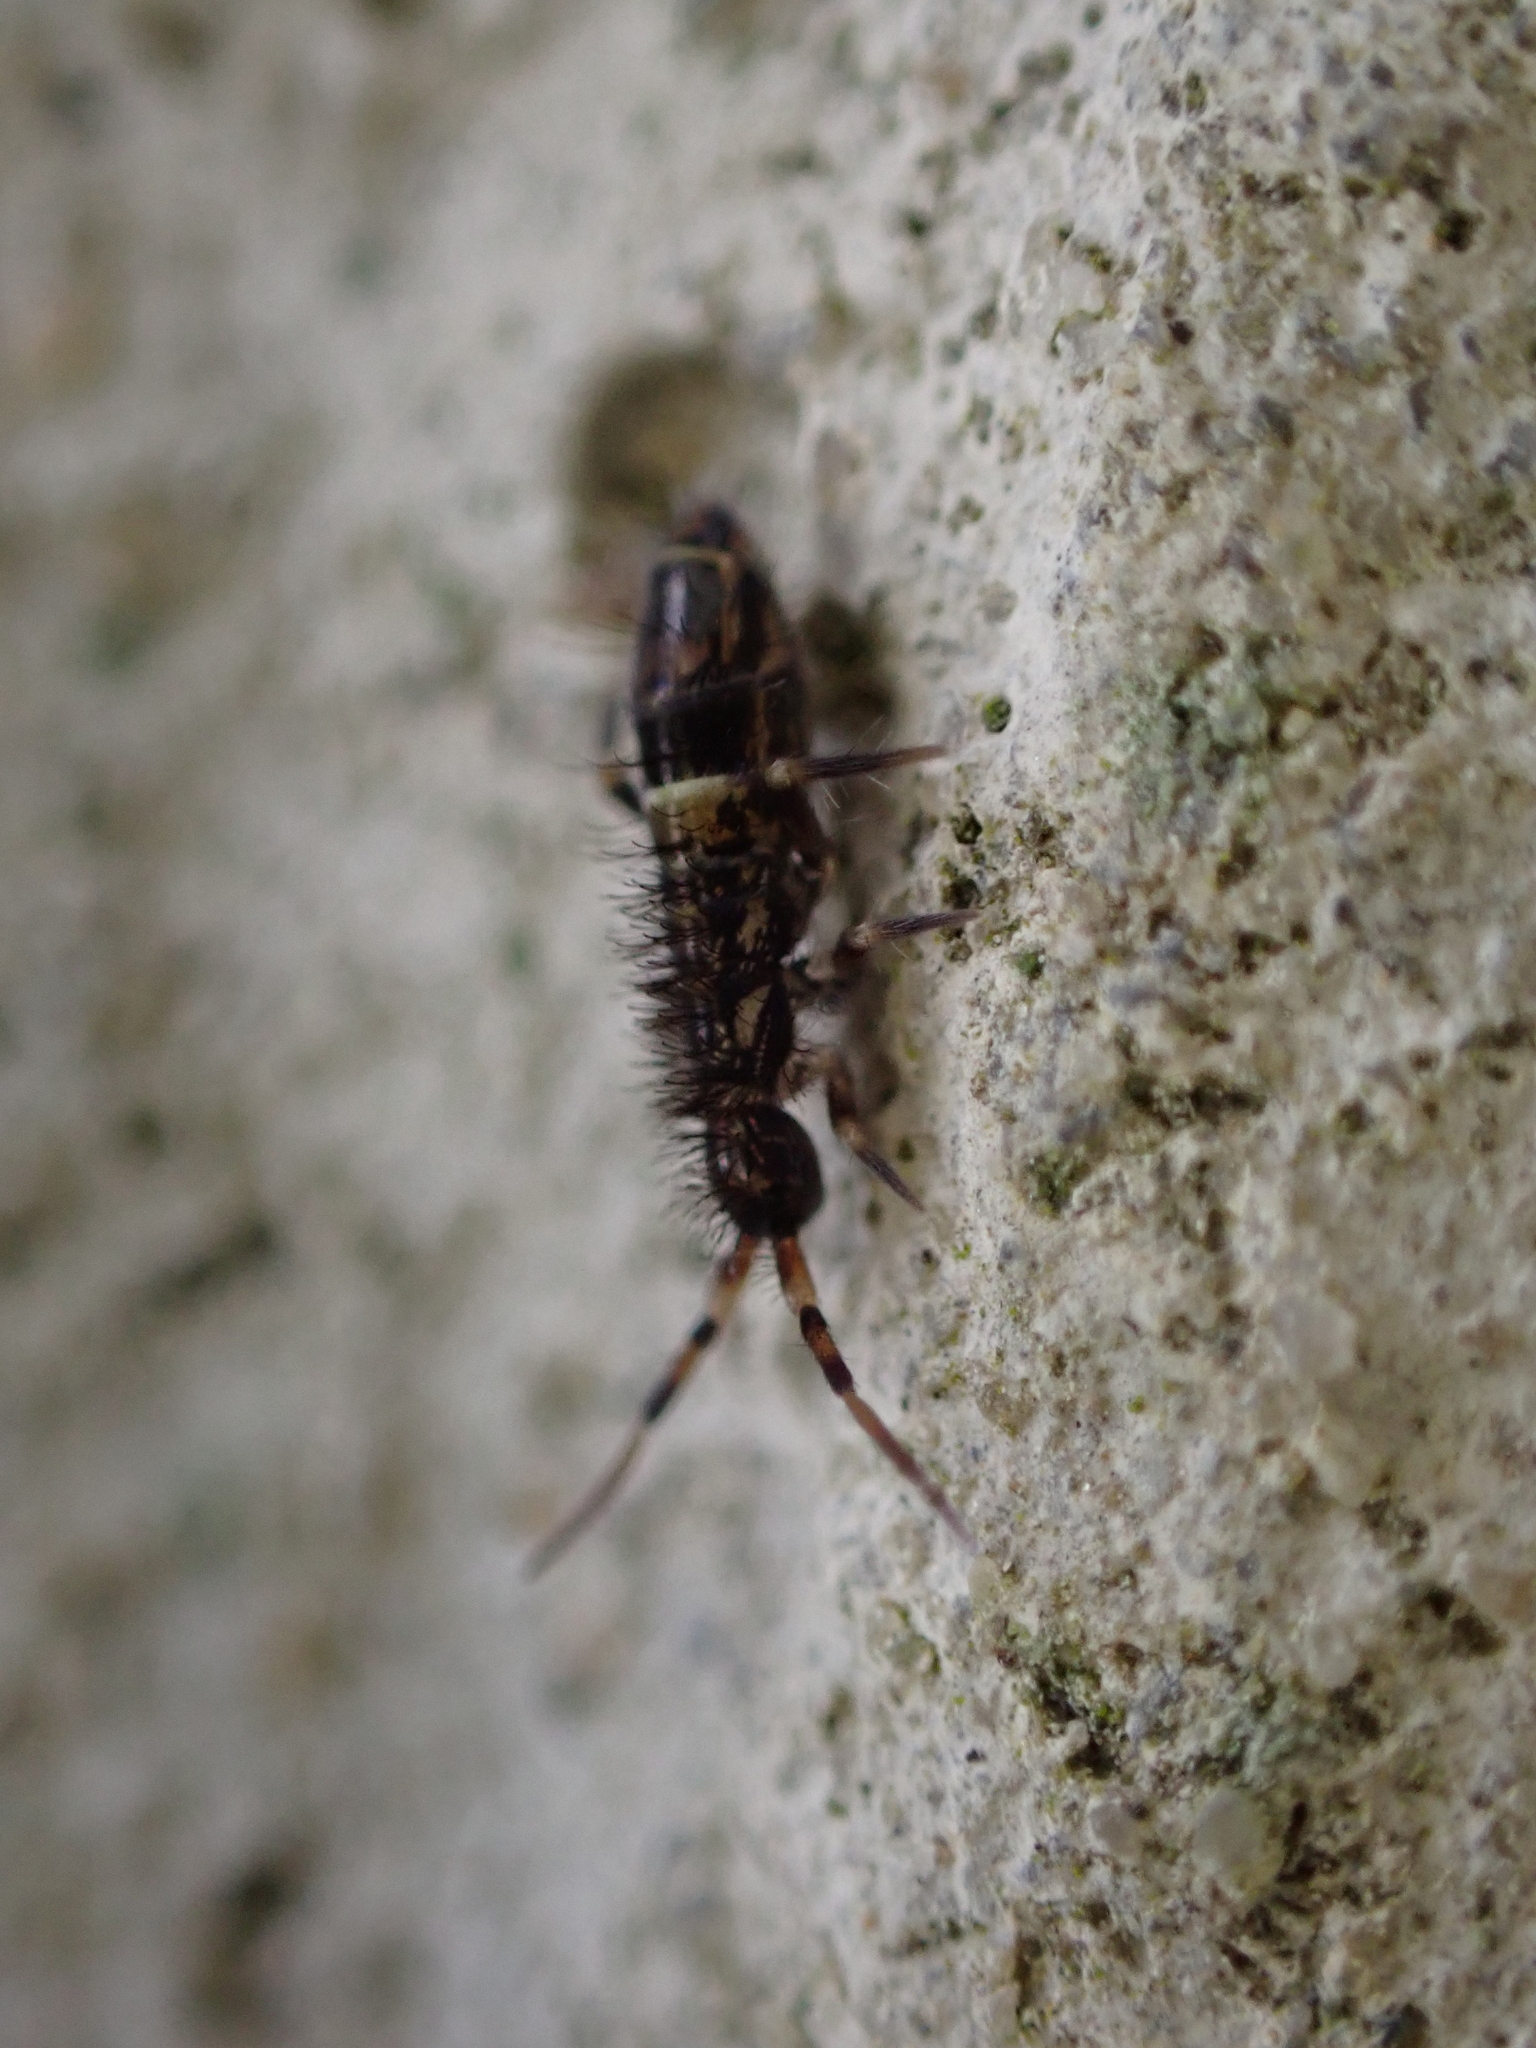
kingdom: Animalia
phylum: Arthropoda
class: Collembola
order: Entomobryomorpha
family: Orchesellidae
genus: Orchesella
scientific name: Orchesella cincta
